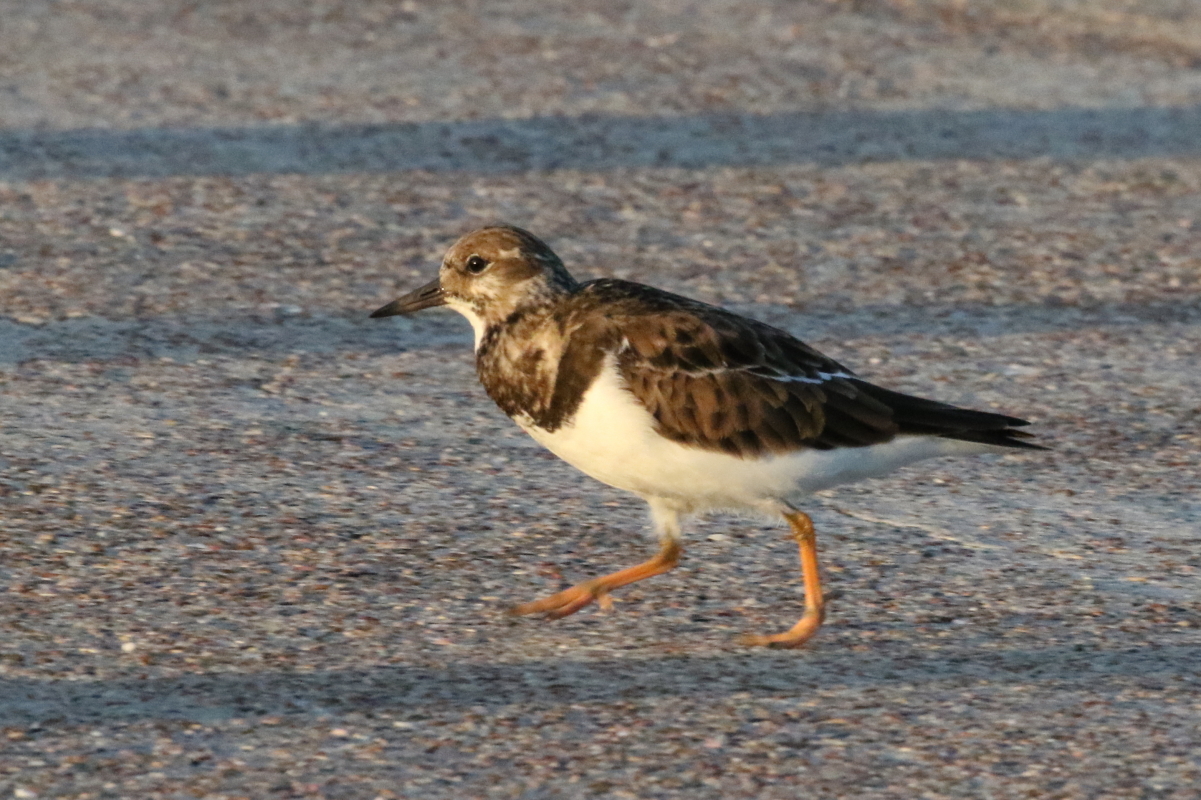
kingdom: Animalia
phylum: Chordata
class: Aves
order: Charadriiformes
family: Scolopacidae
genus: Arenaria
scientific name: Arenaria interpres
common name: Ruddy turnstone
